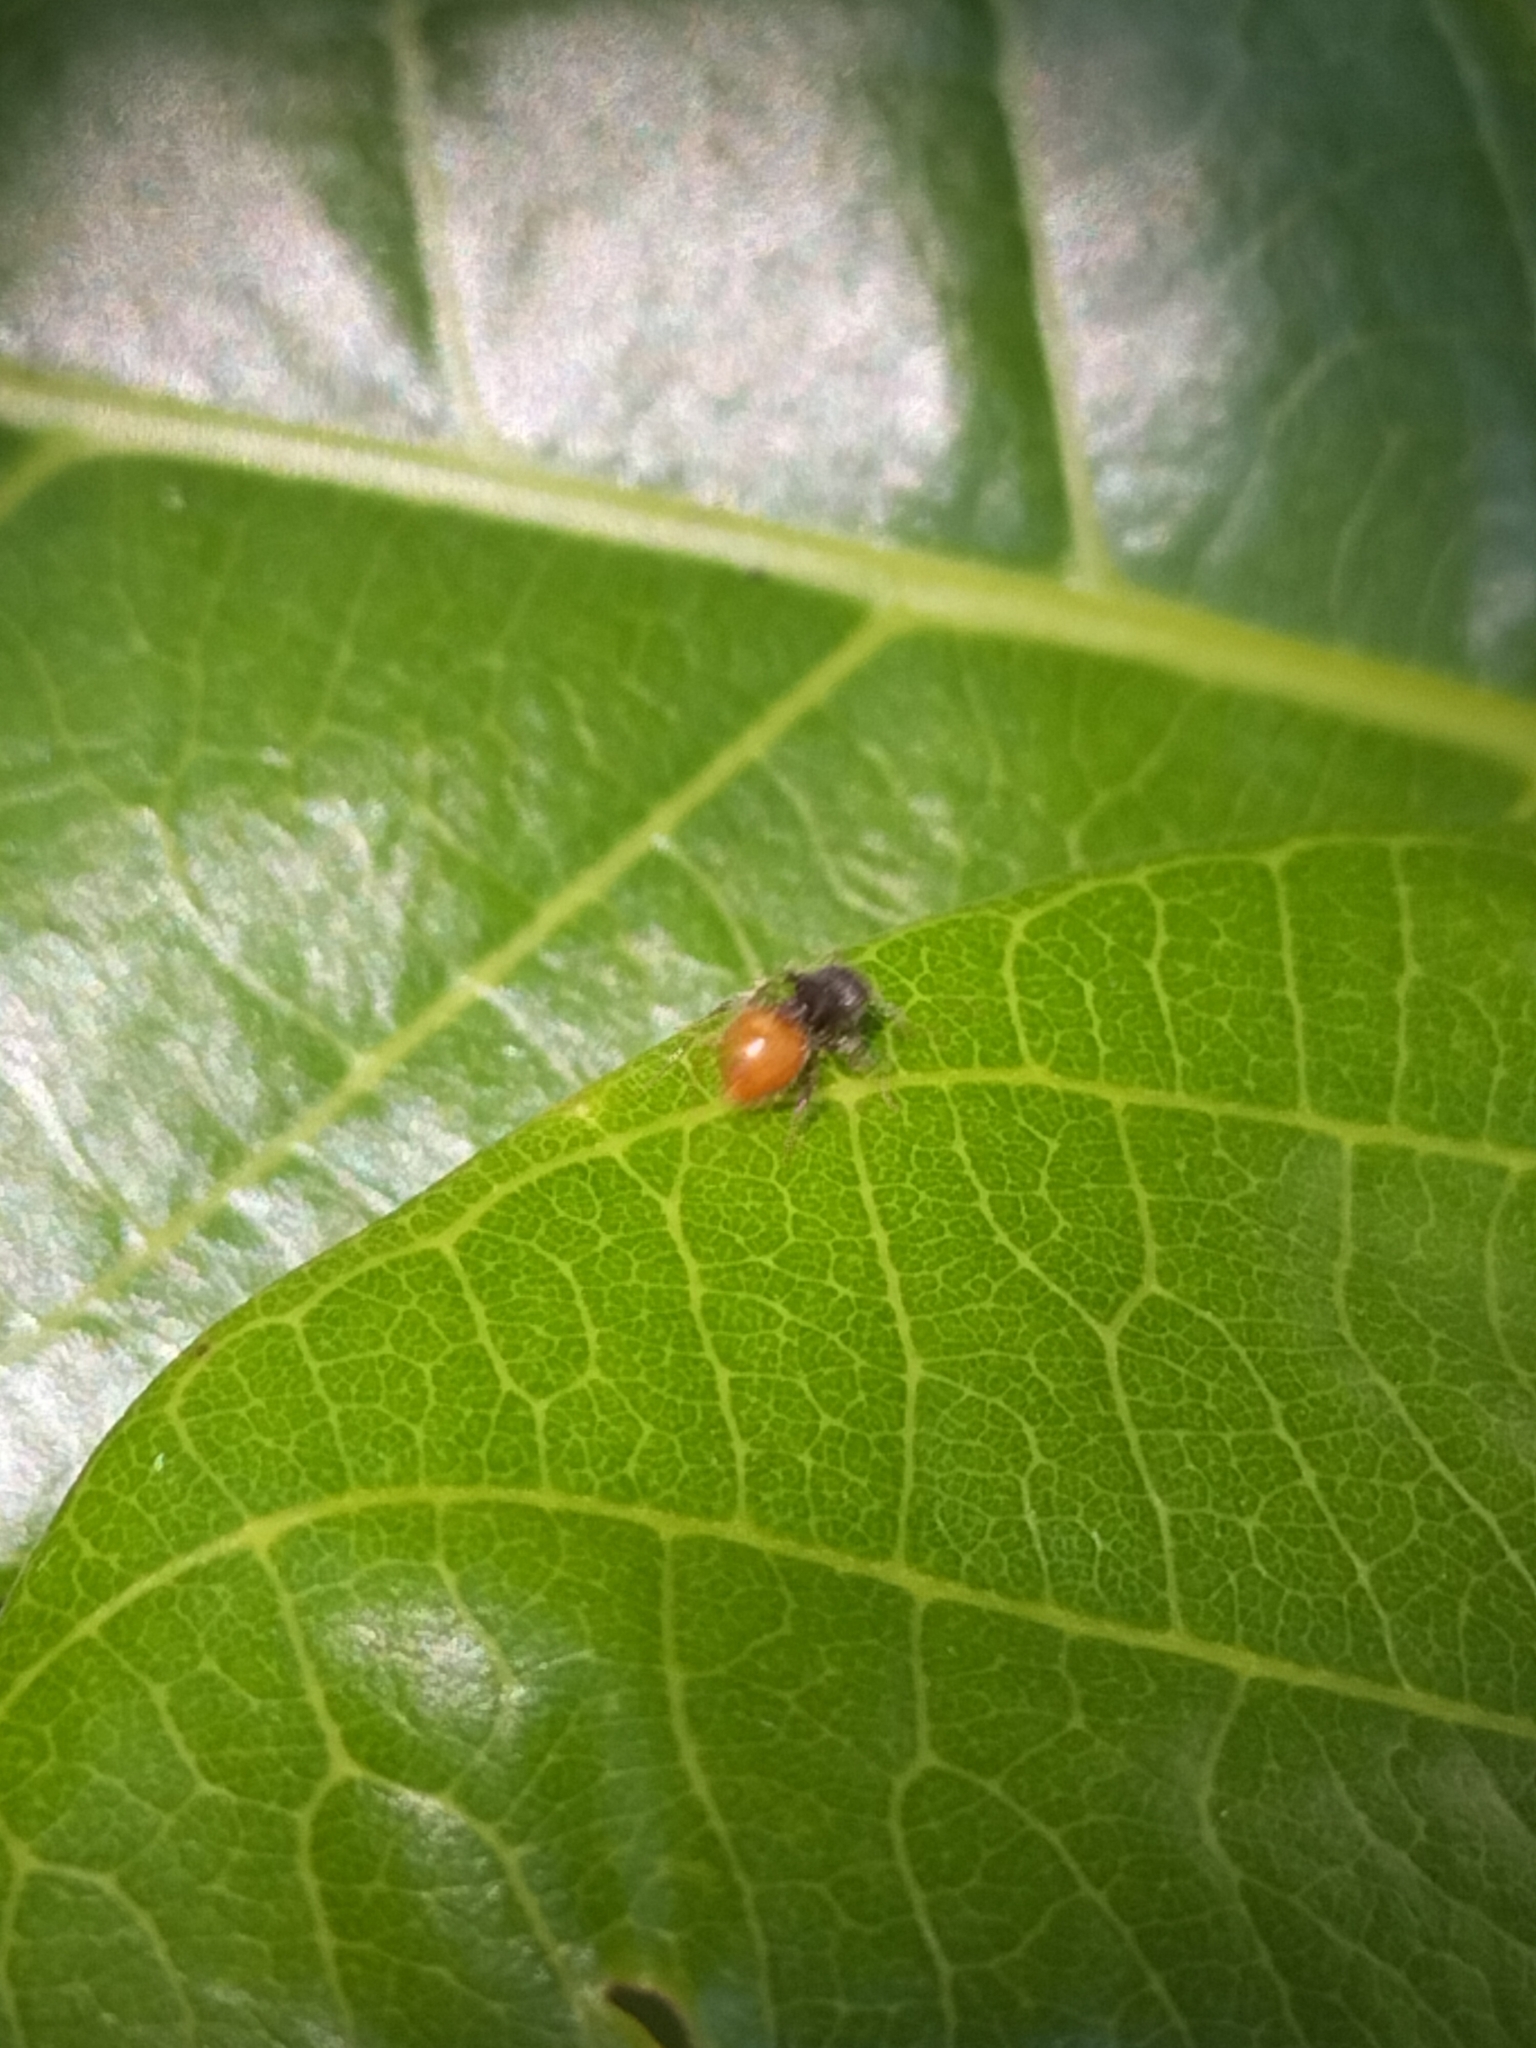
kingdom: Animalia
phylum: Arthropoda
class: Insecta
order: Hymenoptera
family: Formicidae
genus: Meranoplus
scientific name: Meranoplus hirsutus
